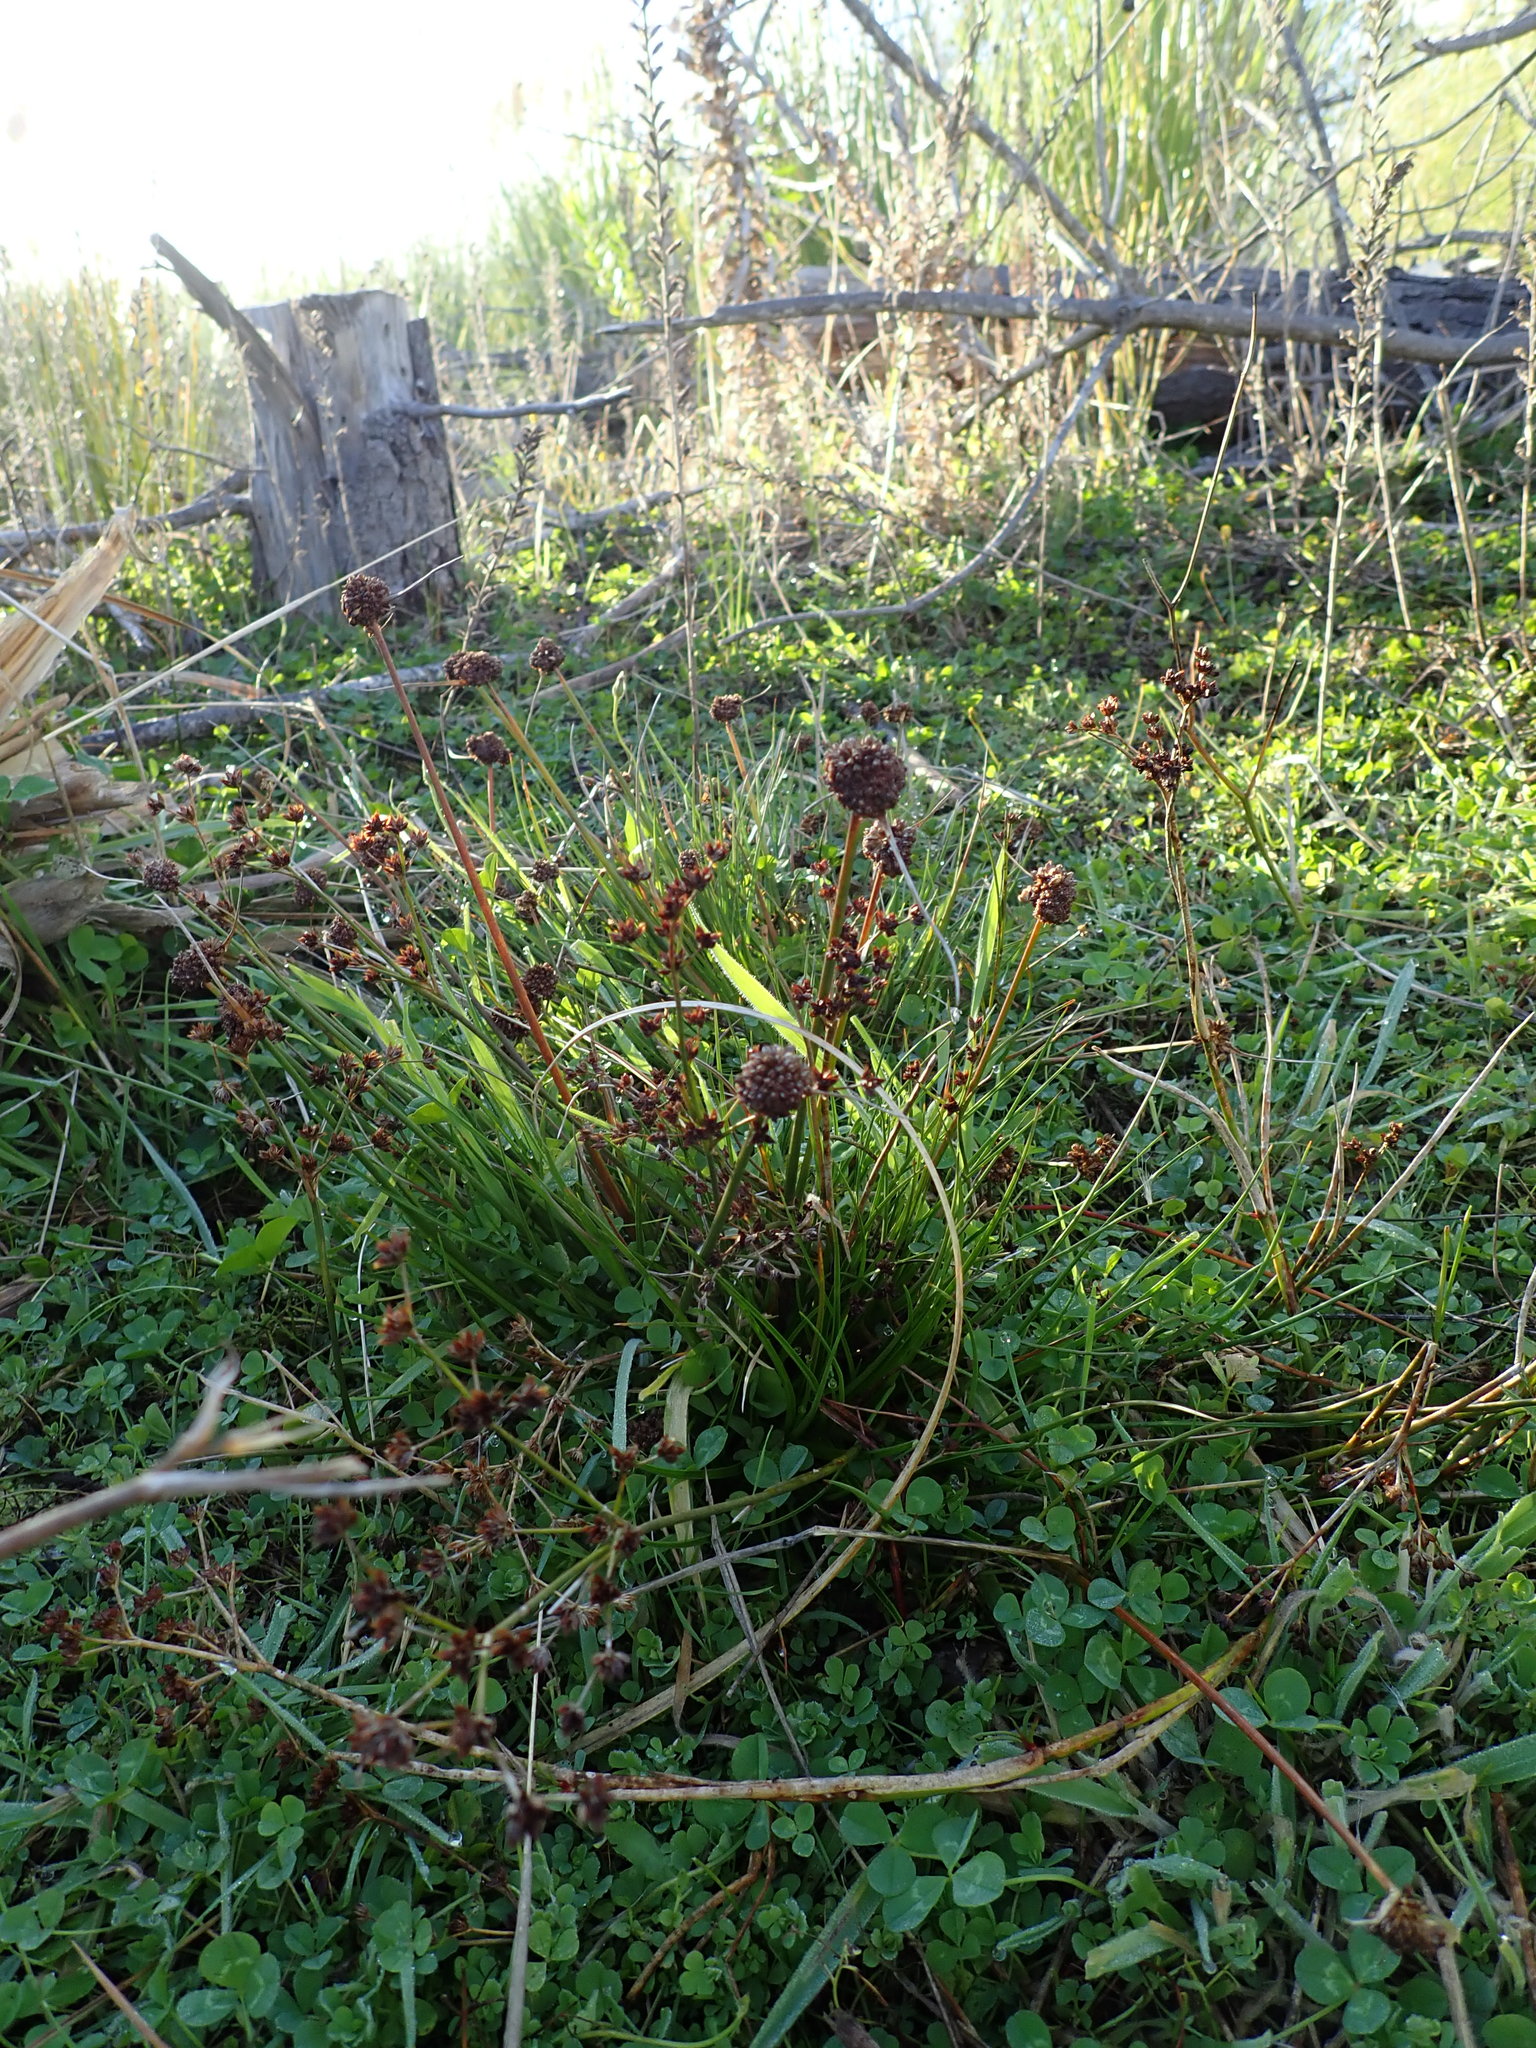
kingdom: Plantae
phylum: Tracheophyta
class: Liliopsida
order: Poales
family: Juncaceae
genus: Juncus
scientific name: Juncus caespiticius
